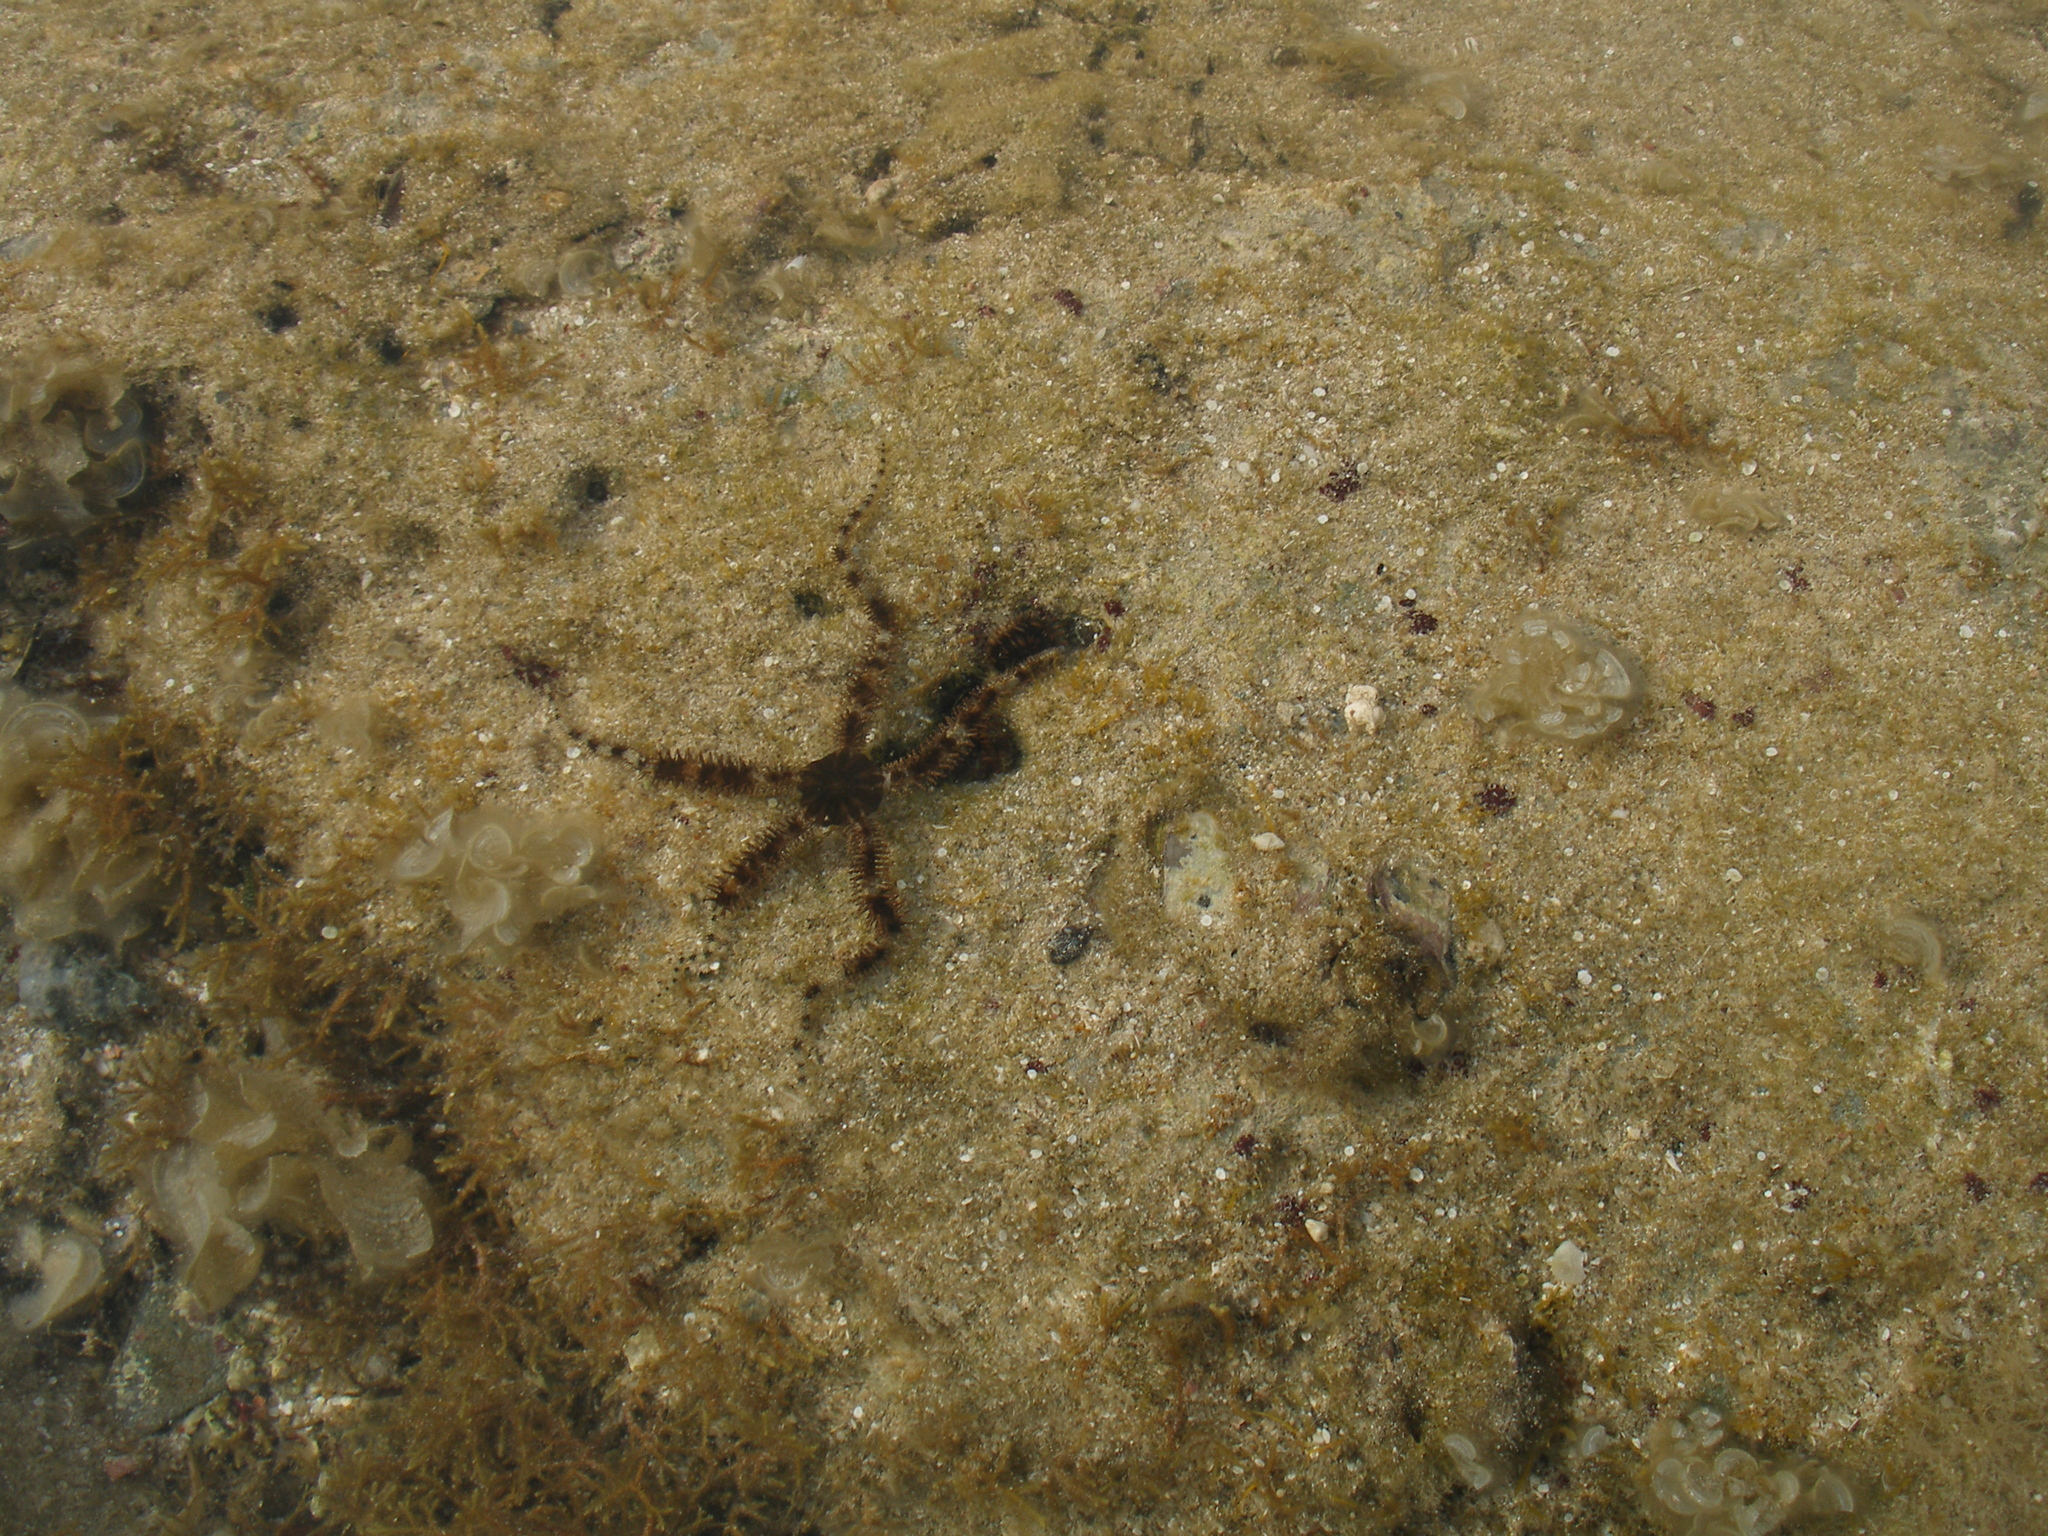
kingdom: Animalia
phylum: Echinodermata
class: Ophiuroidea
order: Ophiacanthida
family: Ophiocomidae
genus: Ophiocoma
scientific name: Ophiocoma scolopendrina
